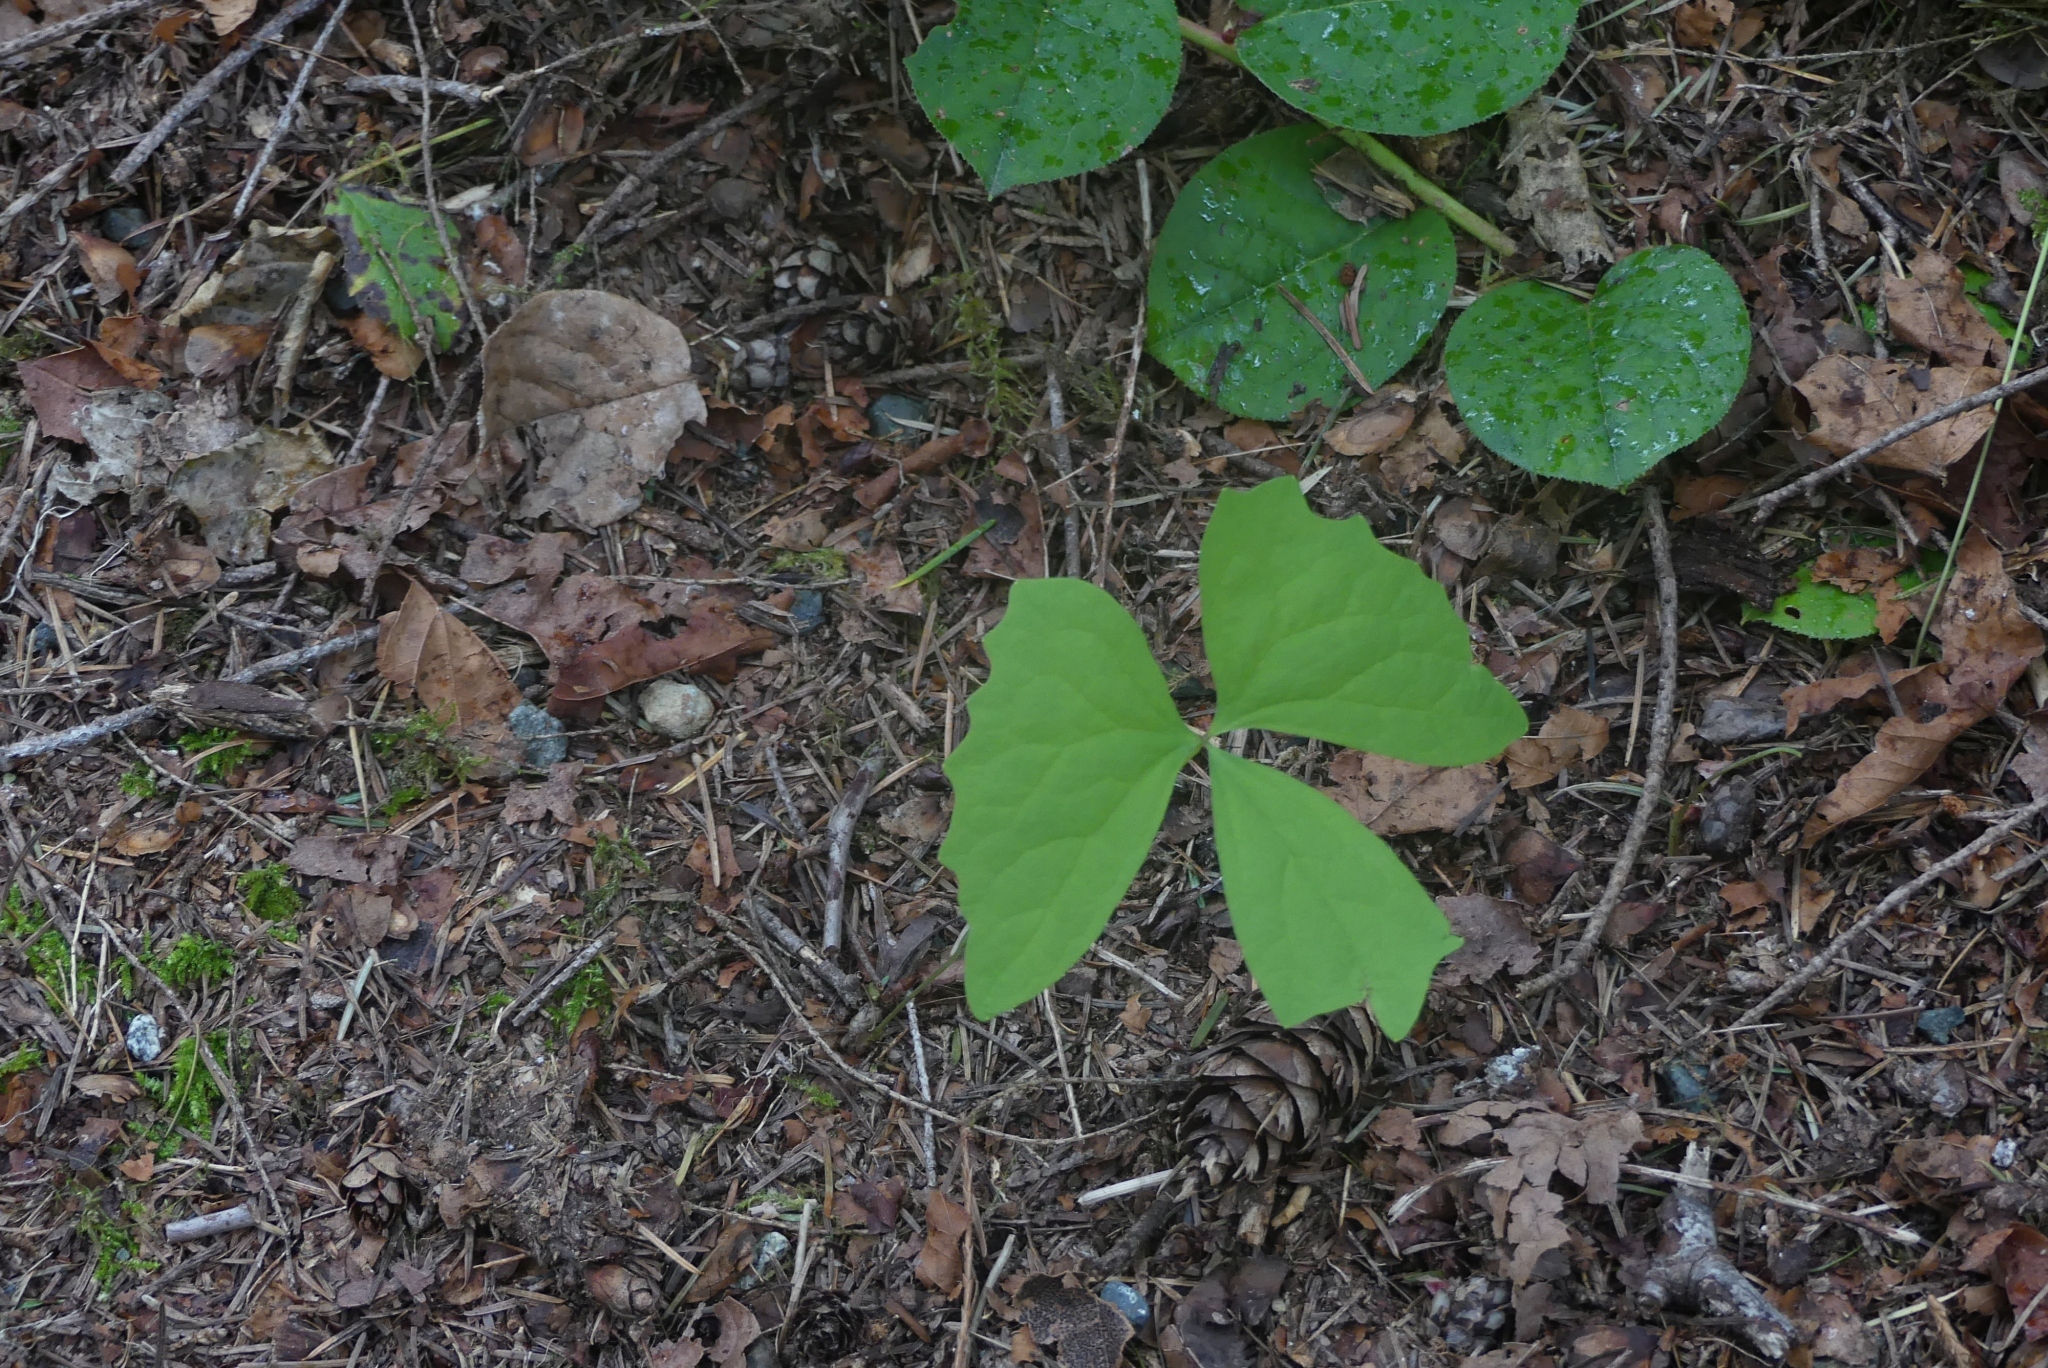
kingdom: Plantae
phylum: Tracheophyta
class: Magnoliopsida
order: Ranunculales
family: Berberidaceae
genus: Achlys
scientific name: Achlys triphylla
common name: Vanilla-leaf
